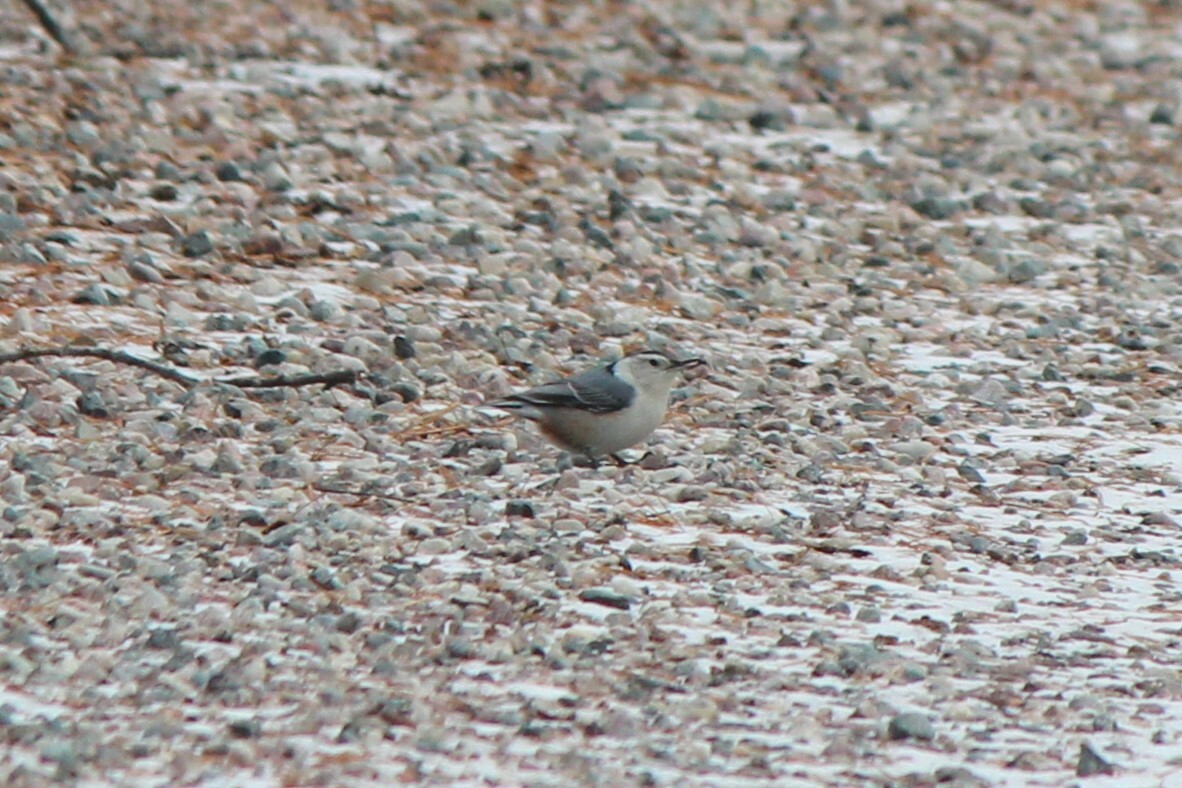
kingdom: Animalia
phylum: Chordata
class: Aves
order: Passeriformes
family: Sittidae
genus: Sitta
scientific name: Sitta carolinensis
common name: White-breasted nuthatch
